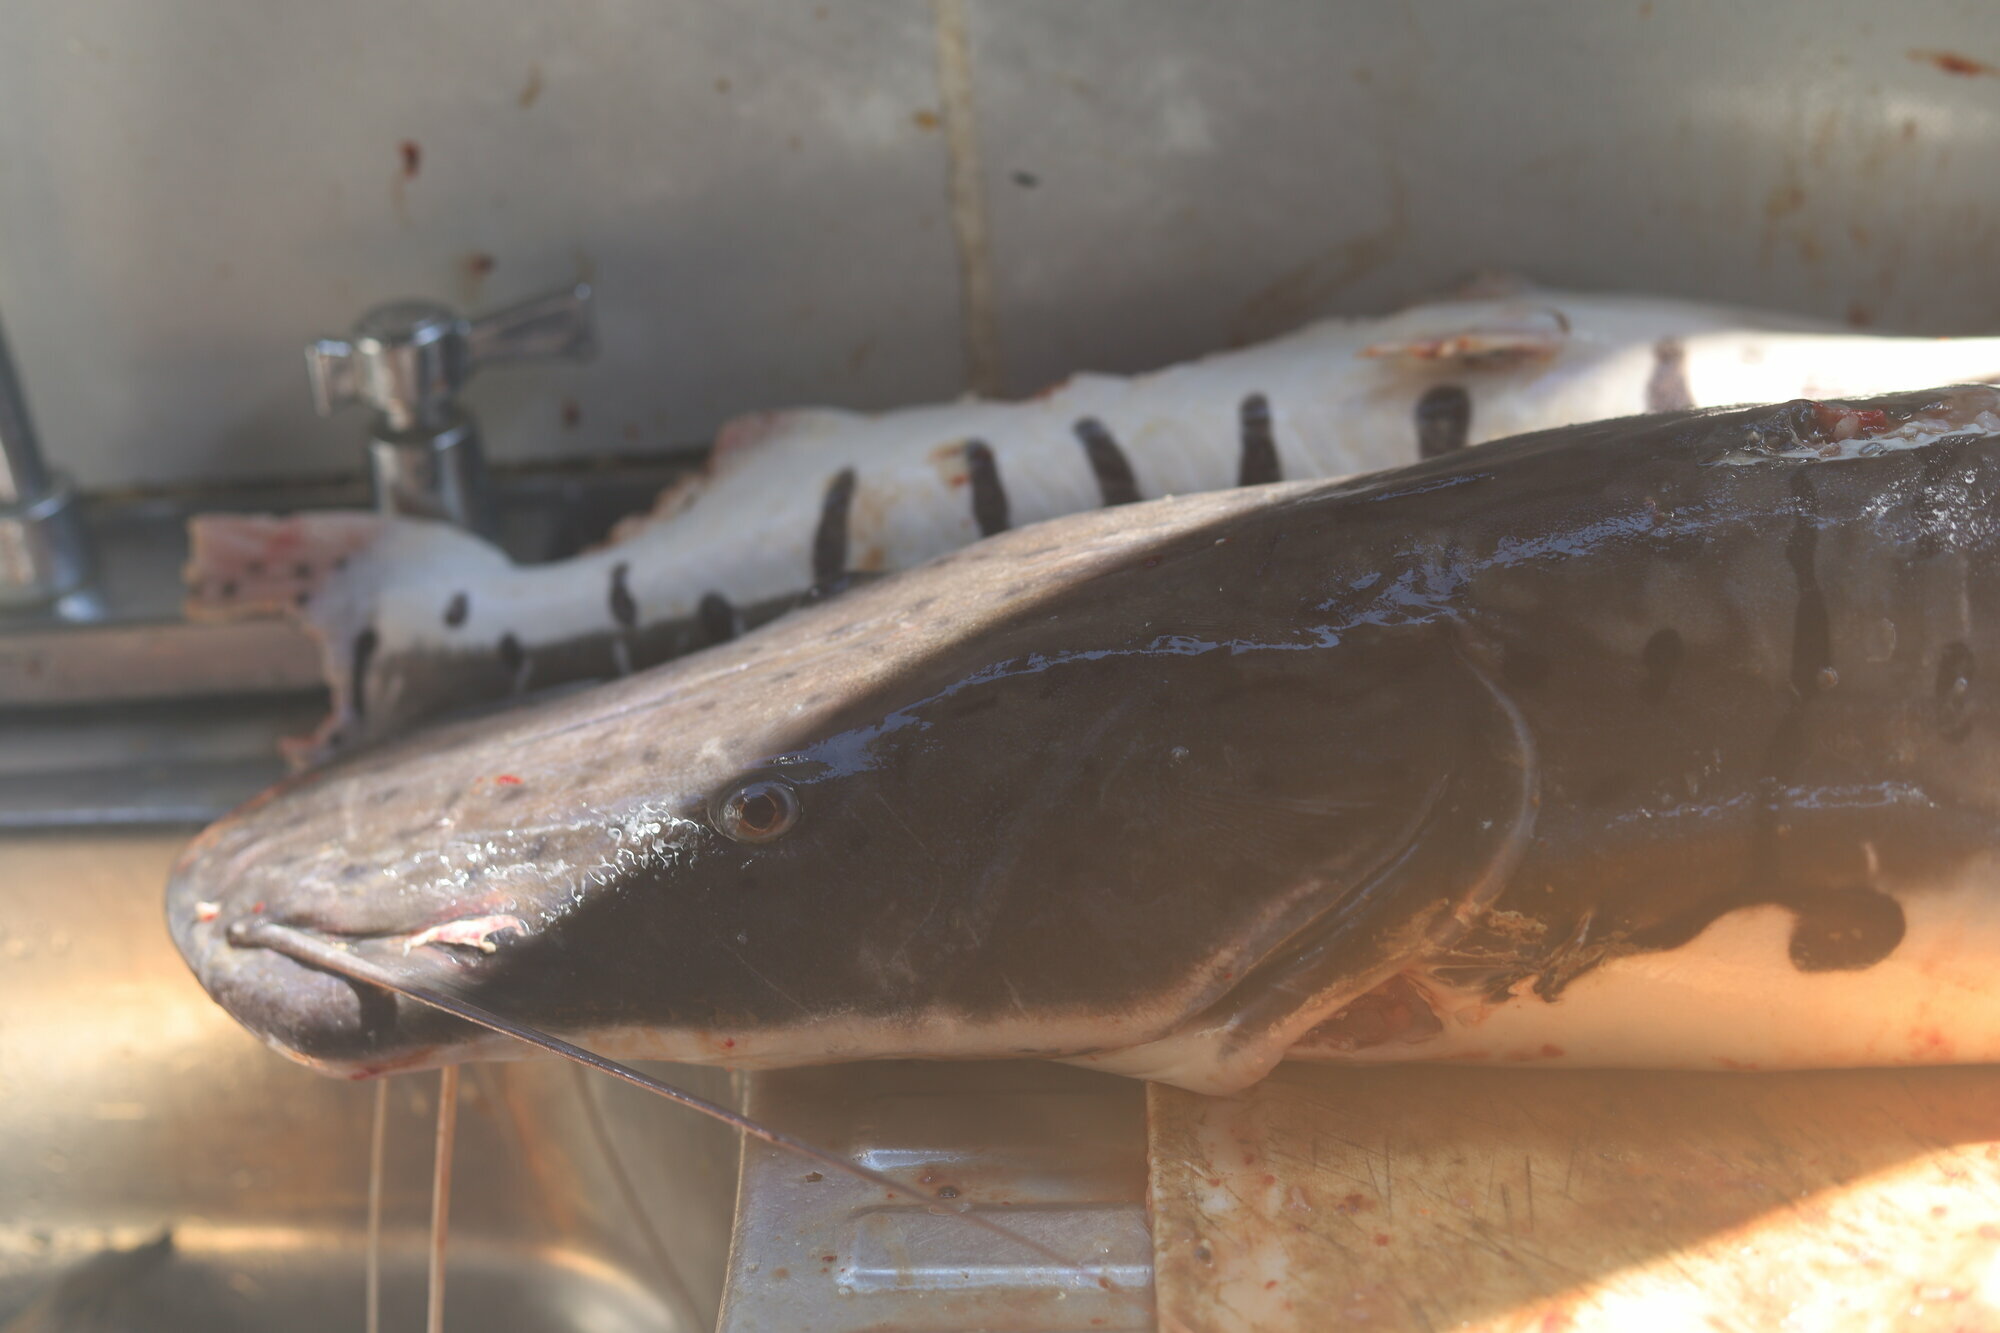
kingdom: Animalia
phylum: Chordata
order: Siluriformes
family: Pimelodidae
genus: Pseudoplatystoma
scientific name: Pseudoplatystoma punctifer
